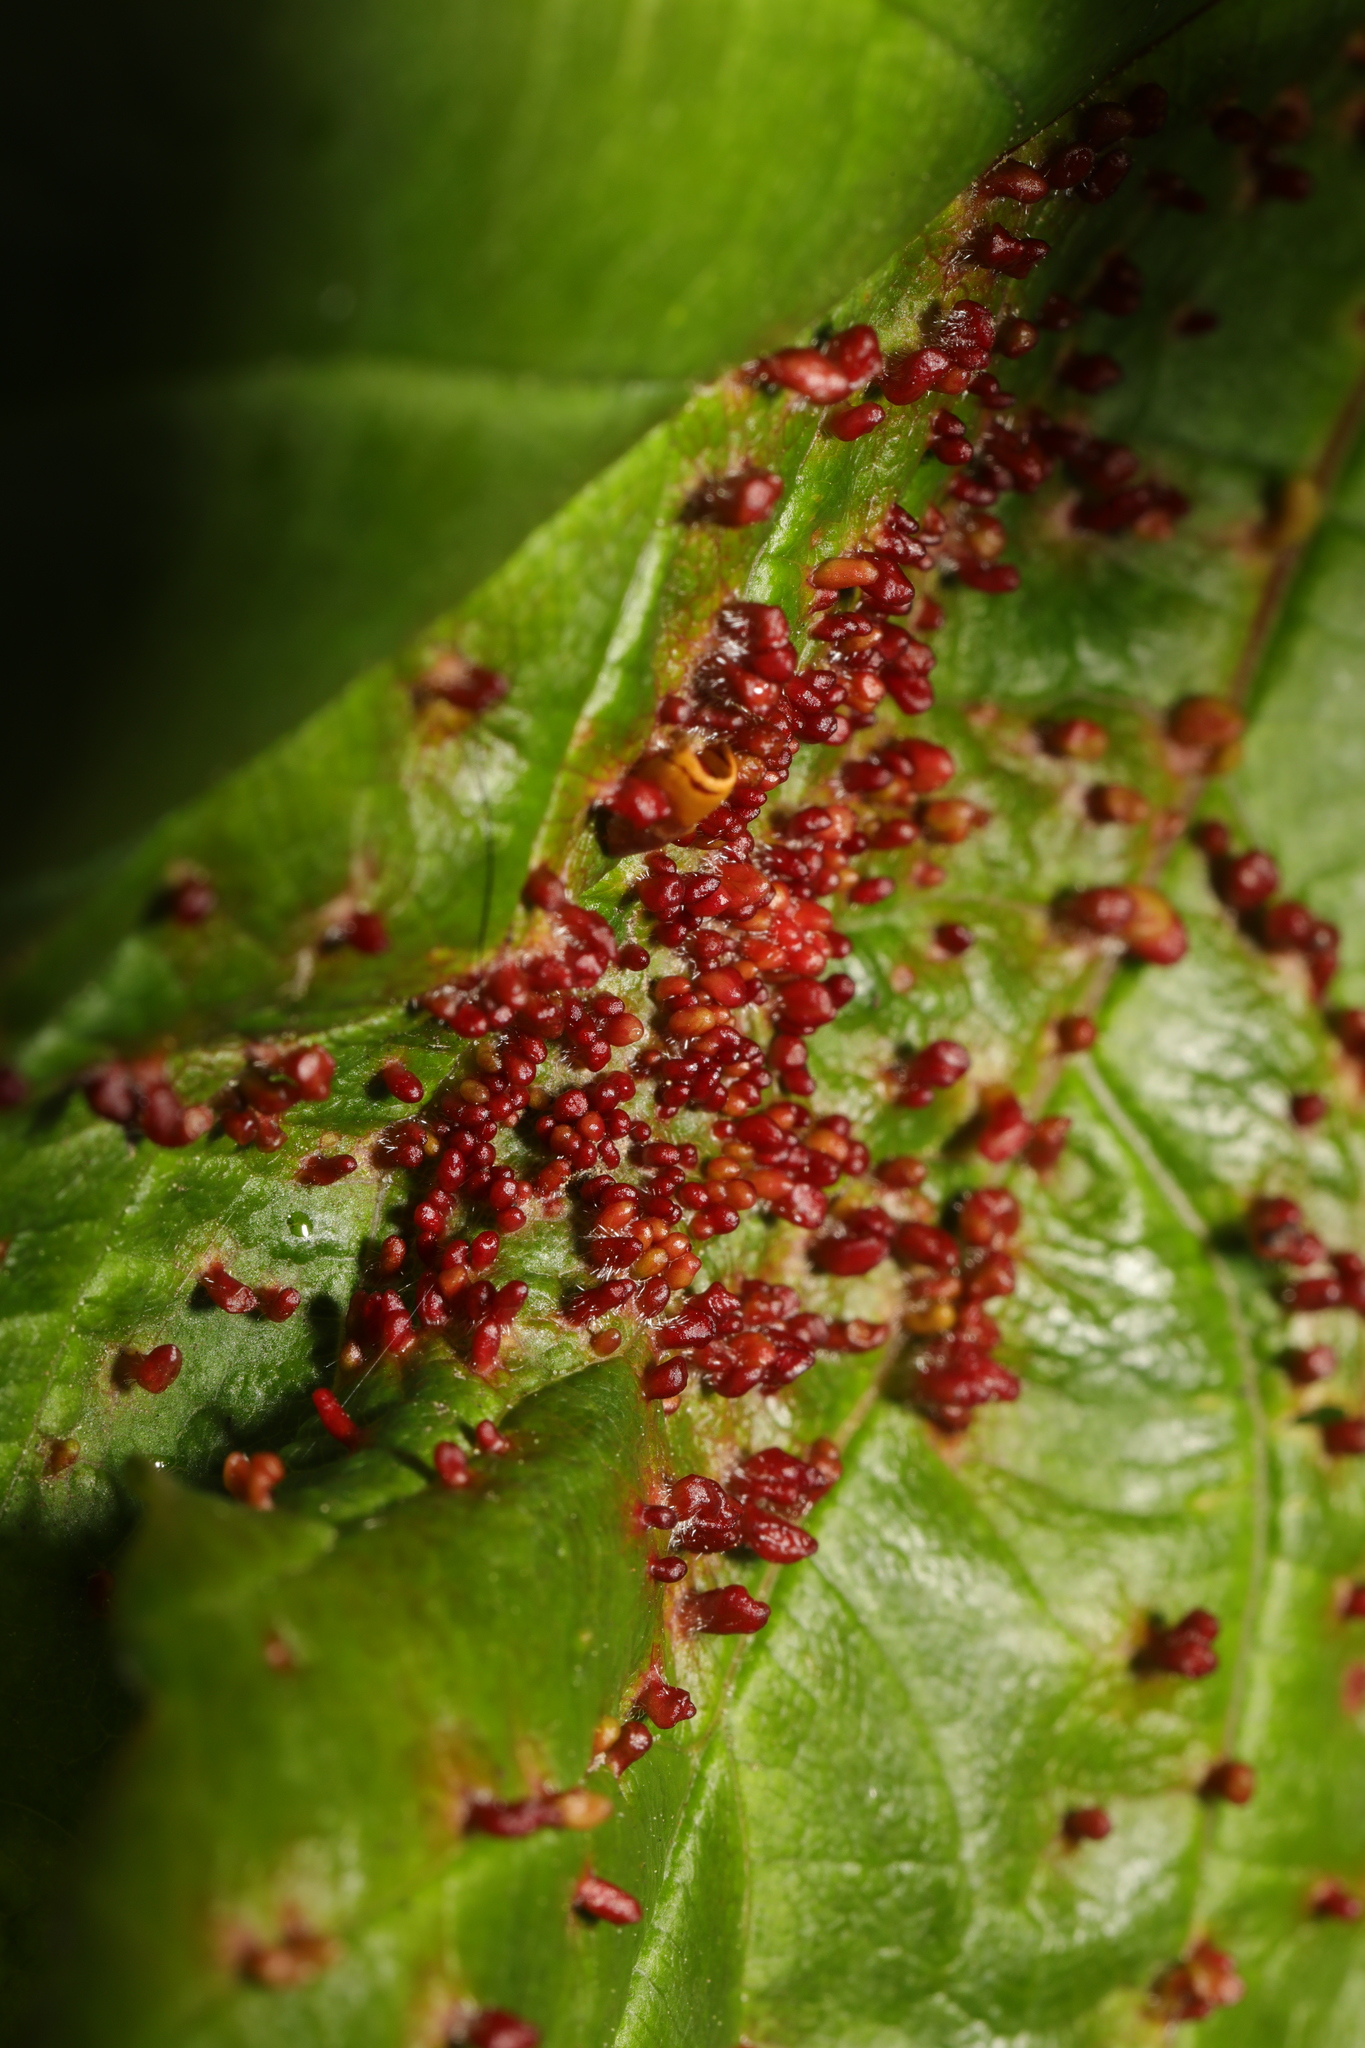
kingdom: Animalia
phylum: Arthropoda
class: Arachnida
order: Trombidiformes
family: Eriophyidae
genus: Aceria
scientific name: Aceria cephaloneus
